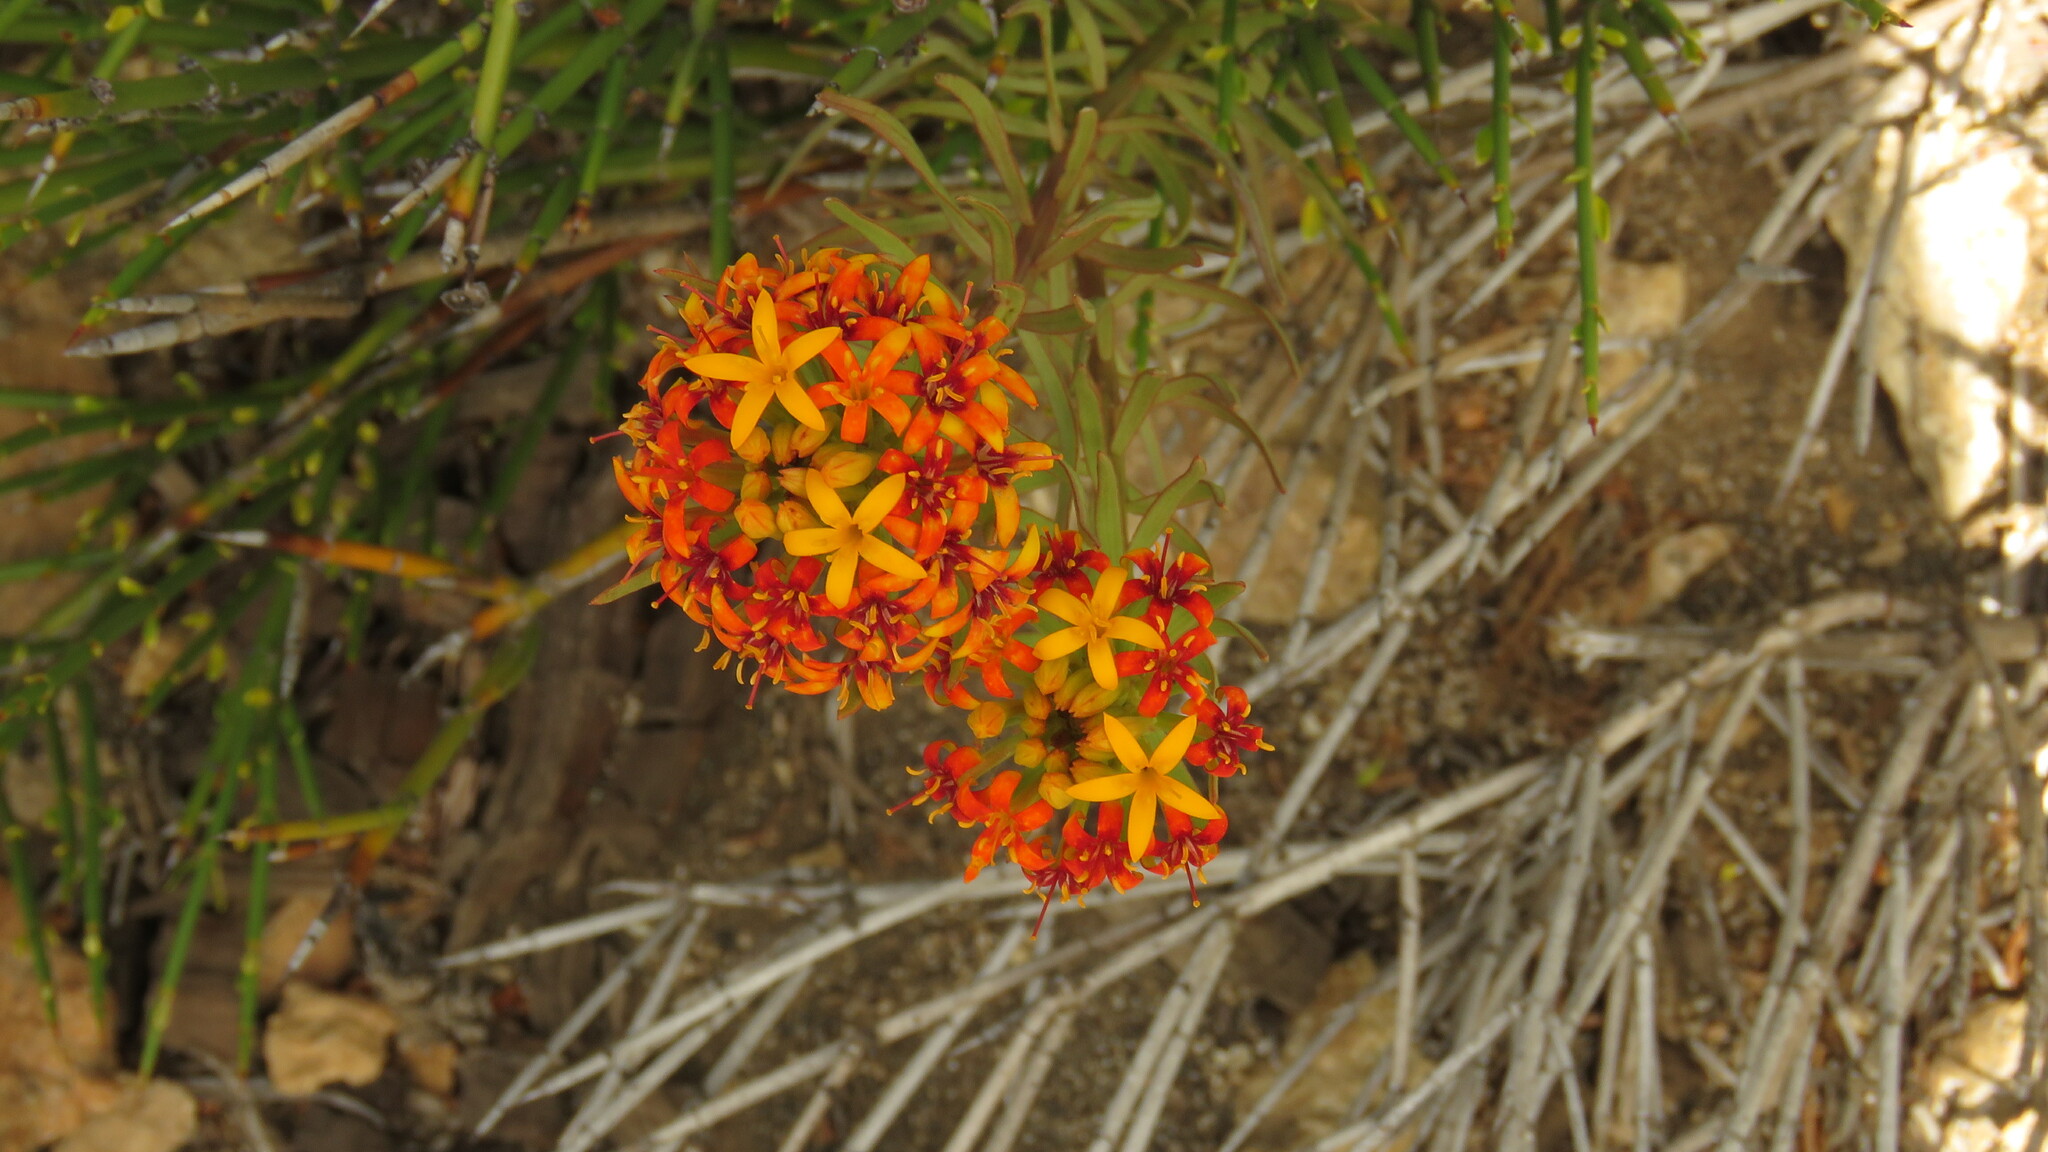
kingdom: Plantae
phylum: Tracheophyta
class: Magnoliopsida
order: Santalales
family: Schoepfiaceae
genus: Quinchamalium
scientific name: Quinchamalium chilense
